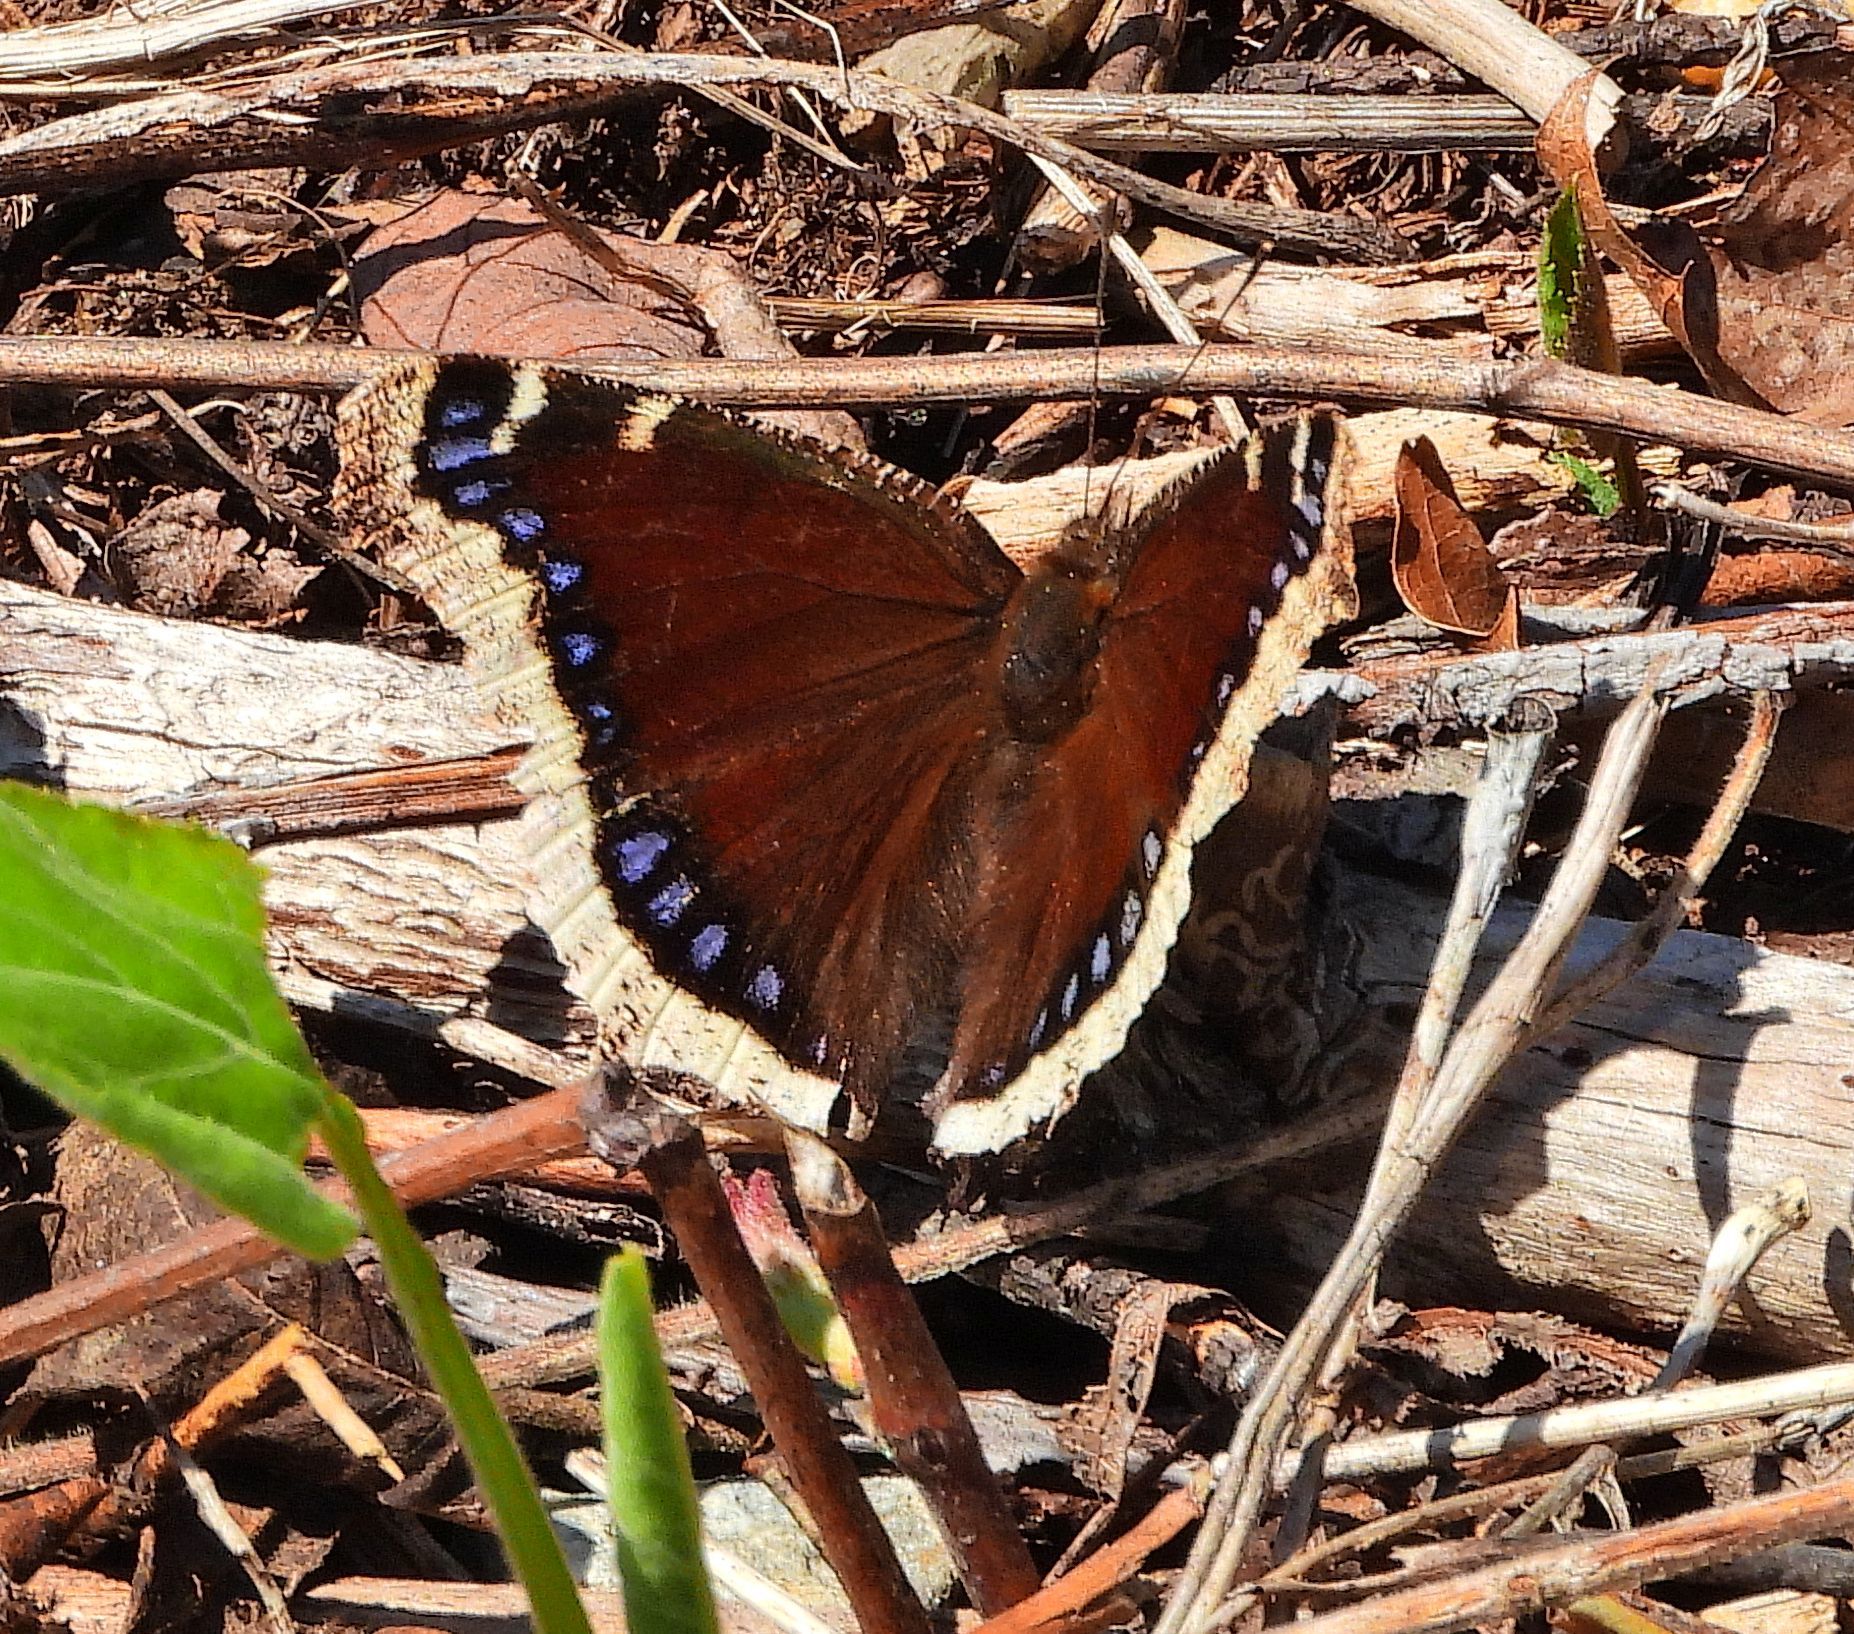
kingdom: Animalia
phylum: Arthropoda
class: Insecta
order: Lepidoptera
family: Nymphalidae
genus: Nymphalis
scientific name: Nymphalis antiopa
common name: Camberwell beauty
